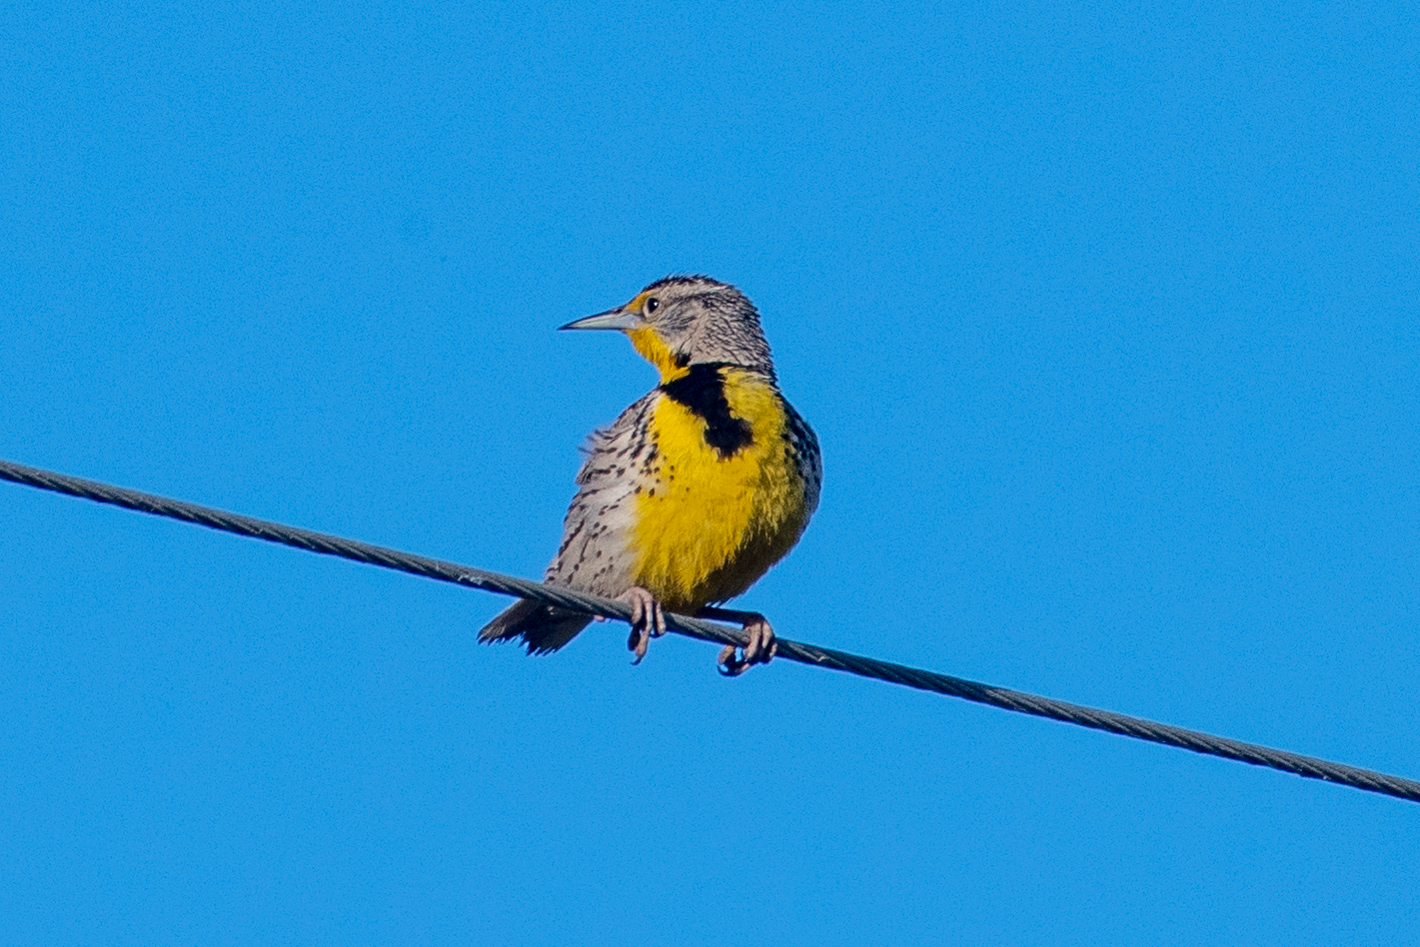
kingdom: Animalia
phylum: Chordata
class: Aves
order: Passeriformes
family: Icteridae
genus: Sturnella
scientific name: Sturnella neglecta
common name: Western meadowlark
